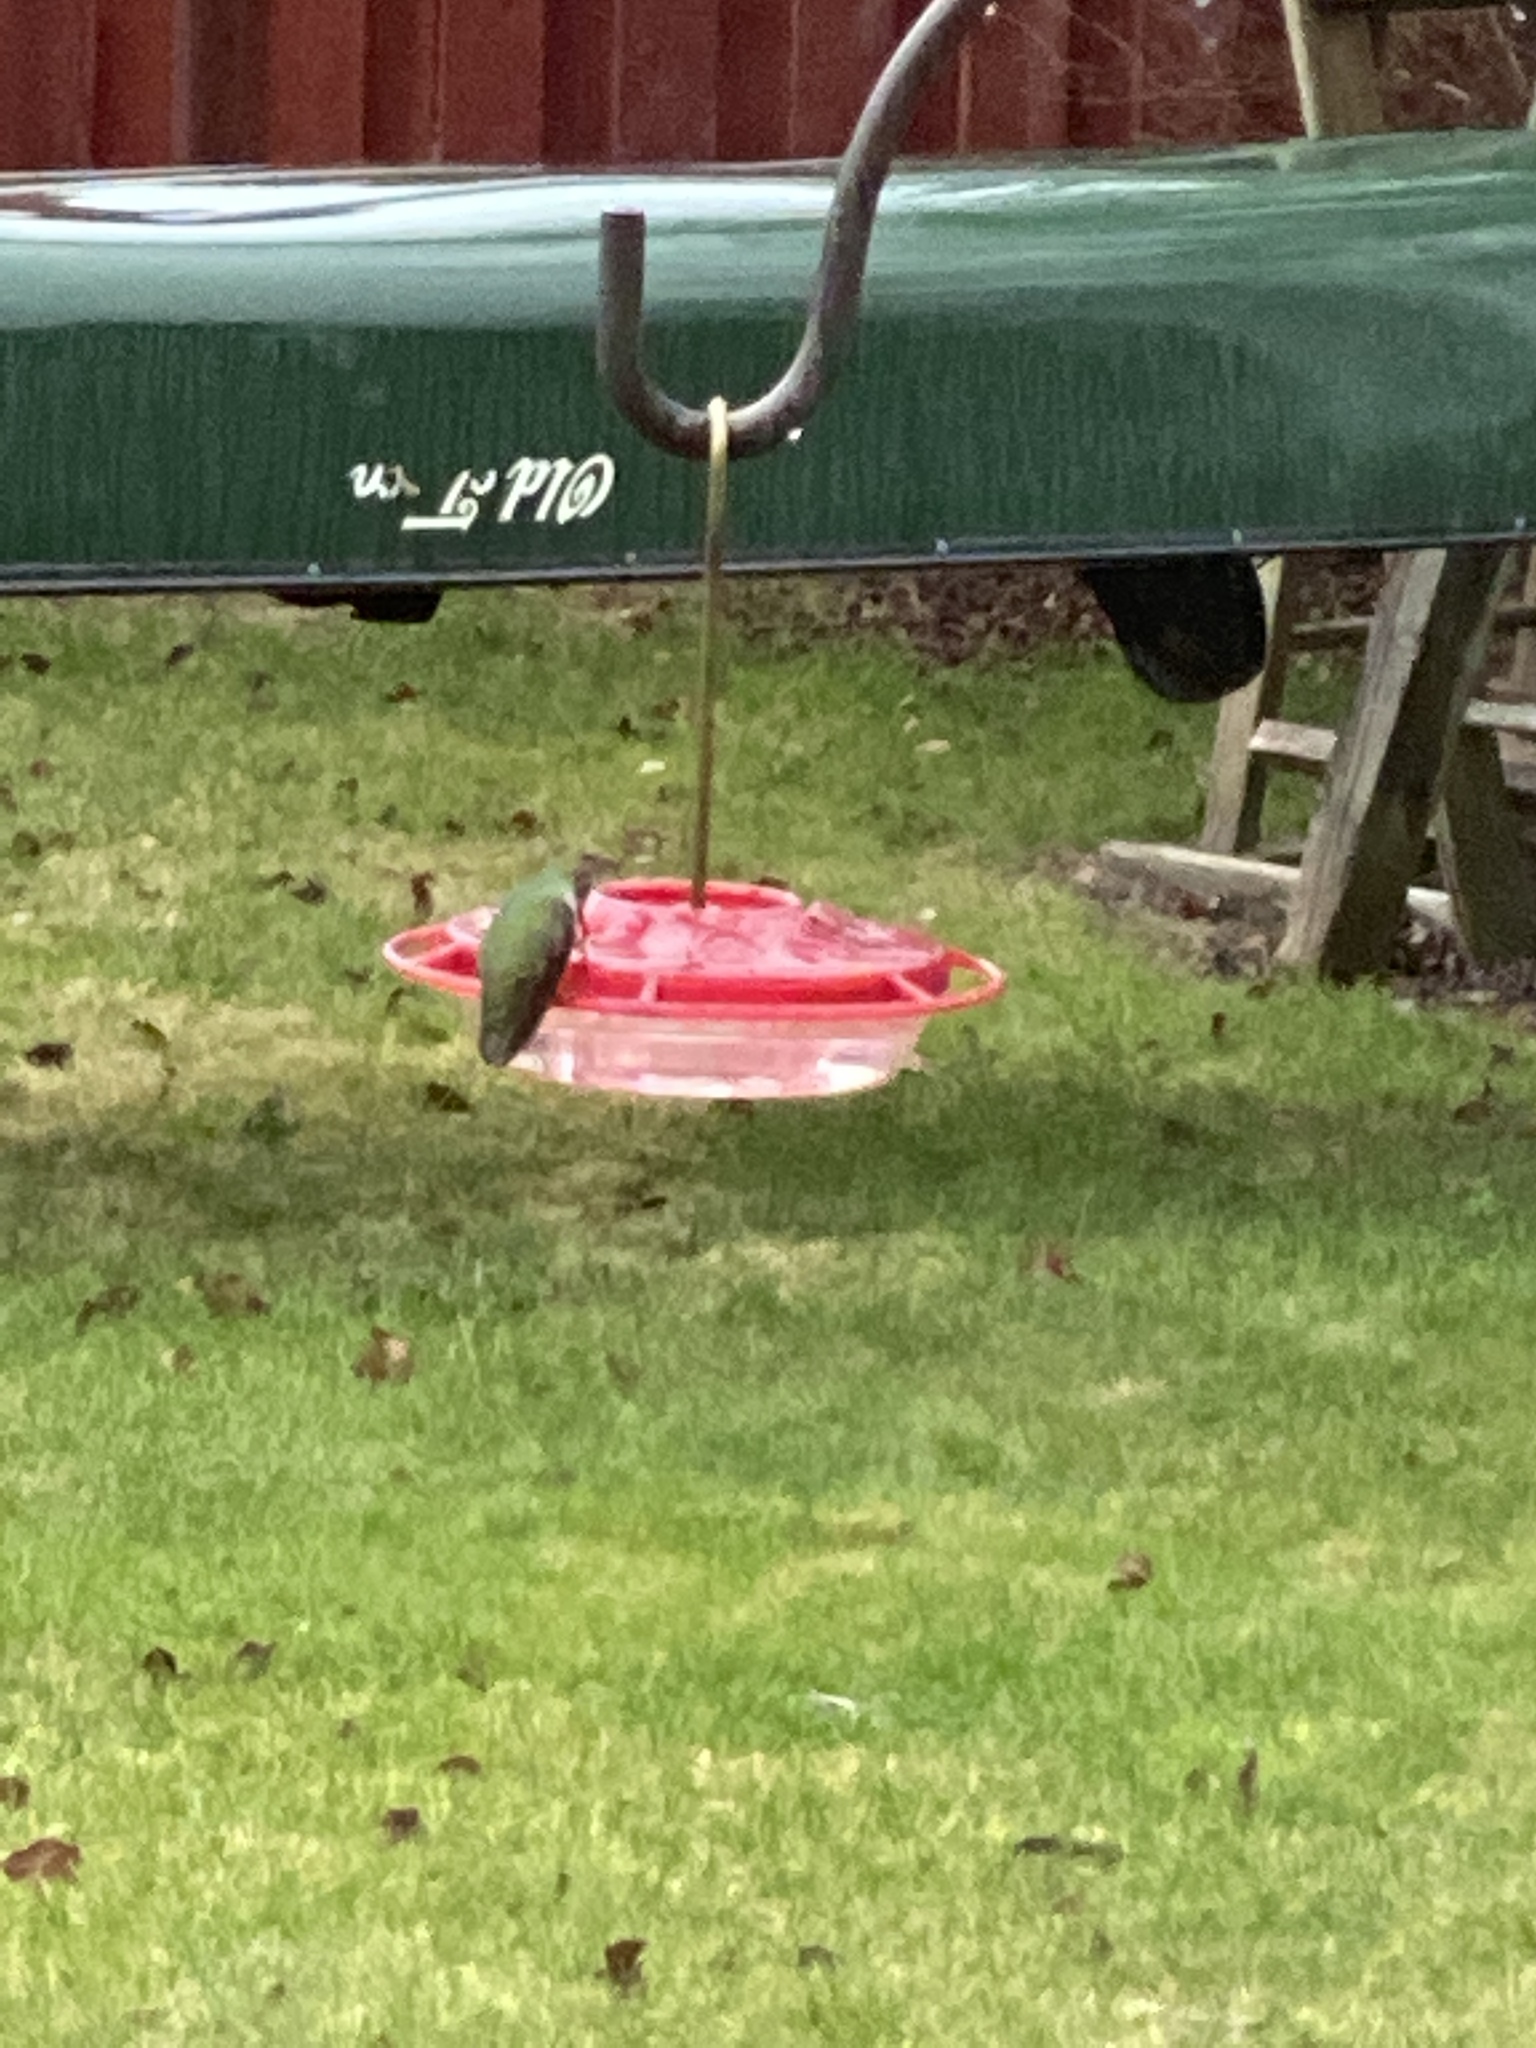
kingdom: Animalia
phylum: Chordata
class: Aves
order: Apodiformes
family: Trochilidae
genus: Calypte
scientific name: Calypte anna
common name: Anna's hummingbird
